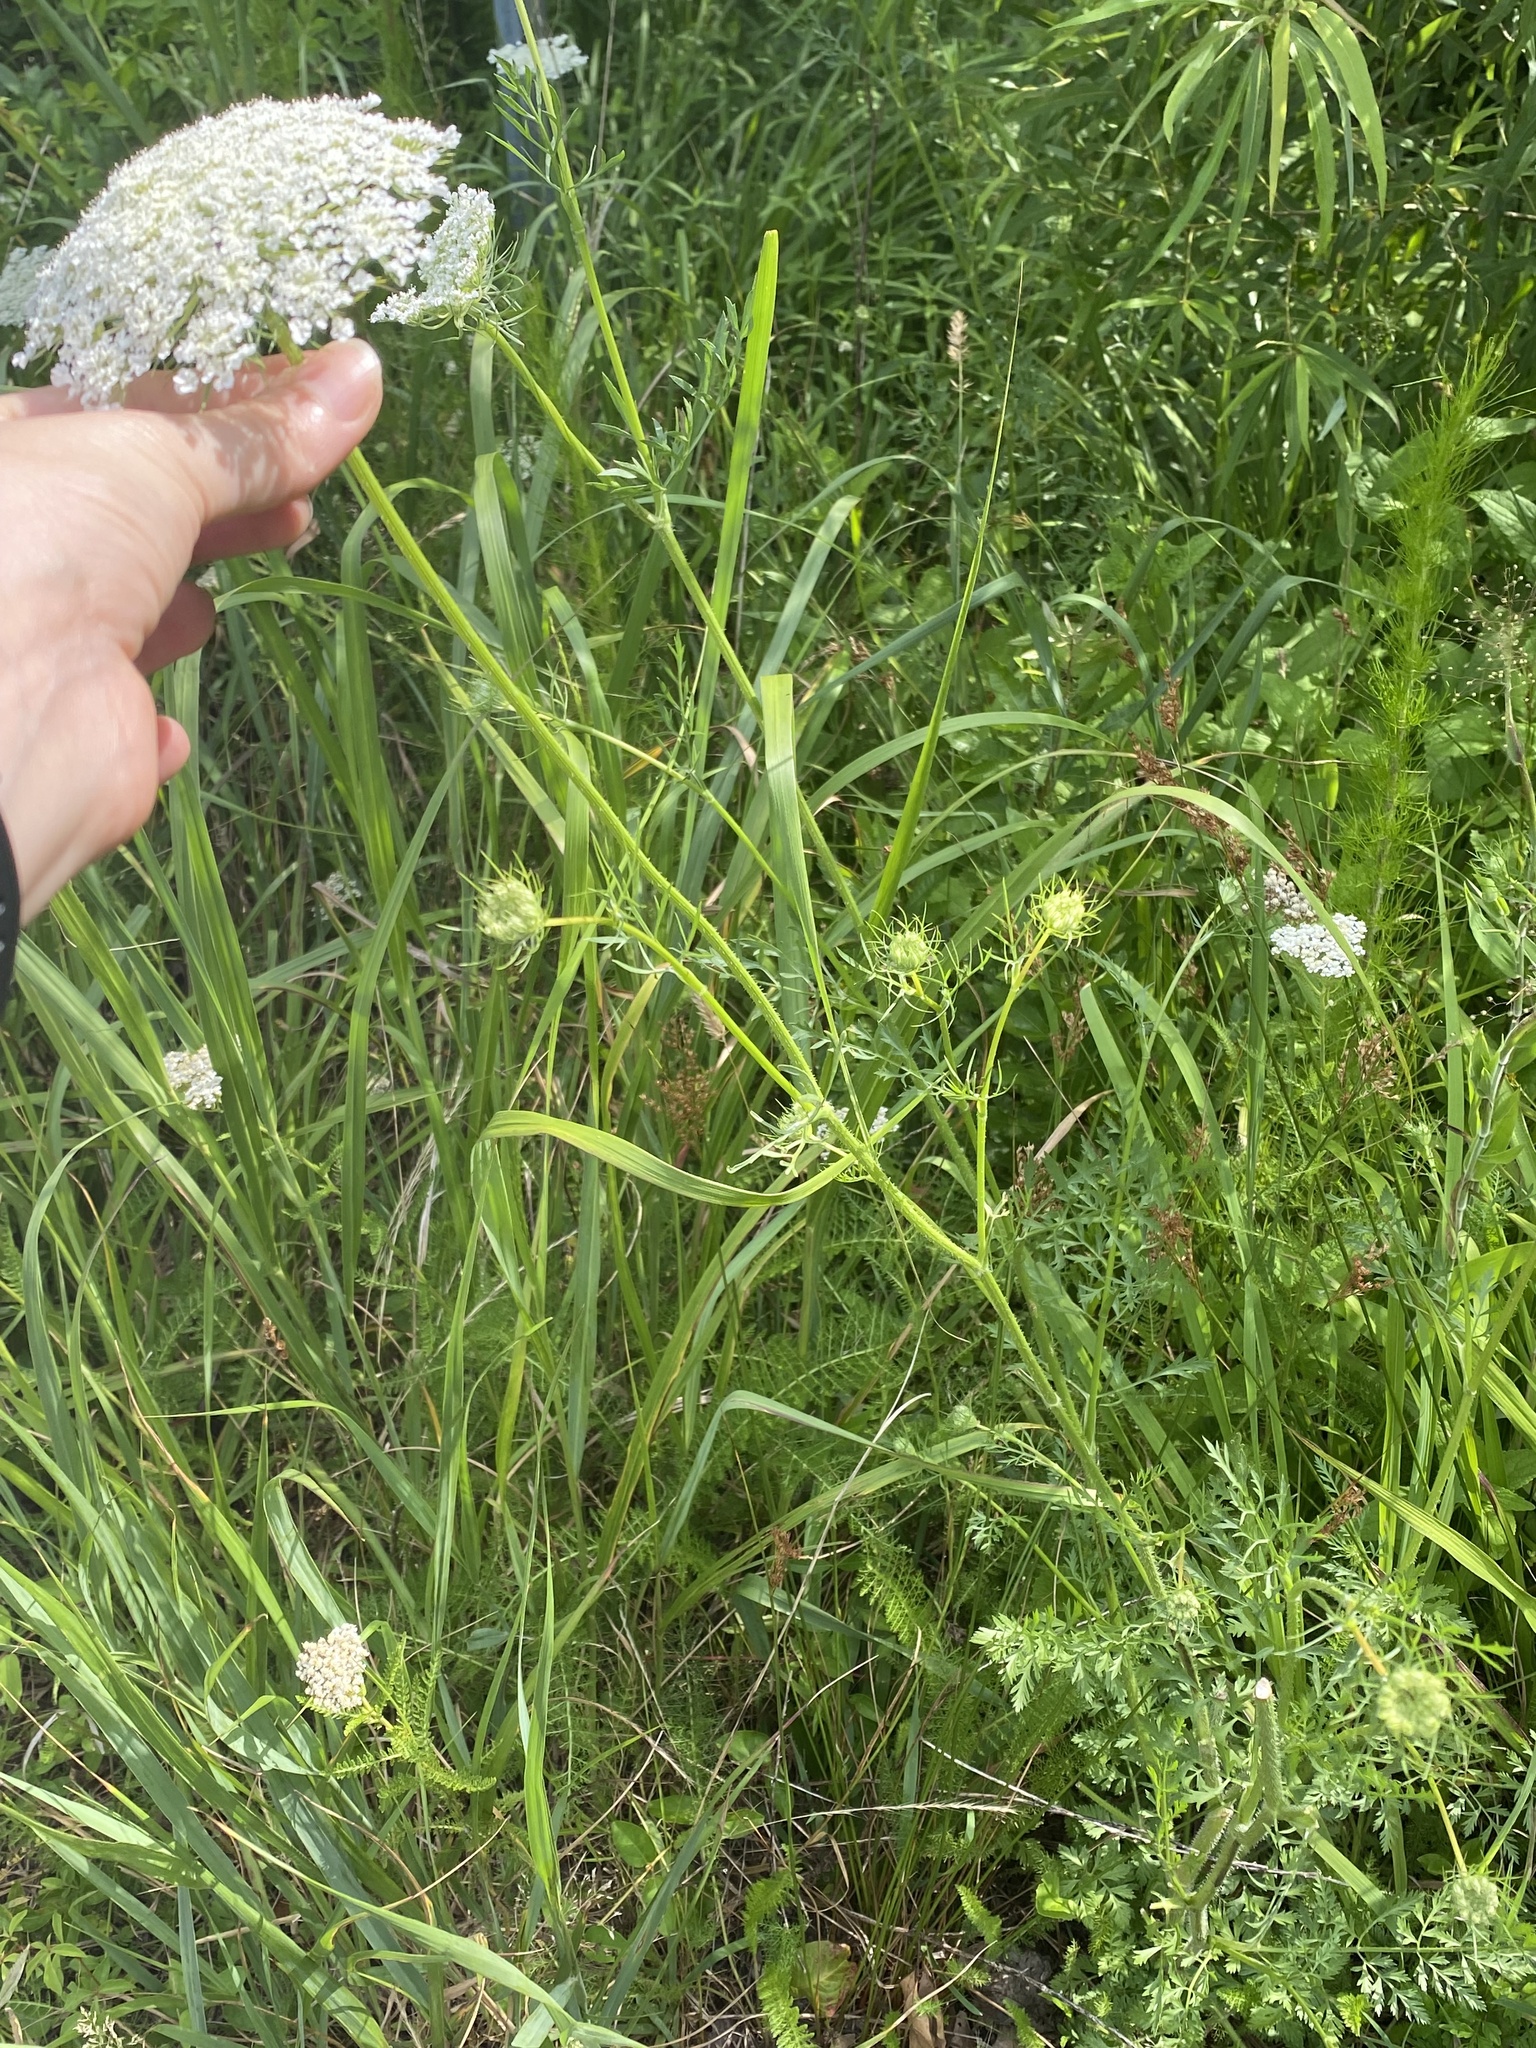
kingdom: Plantae
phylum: Tracheophyta
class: Magnoliopsida
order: Apiales
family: Apiaceae
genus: Daucus
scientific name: Daucus carota
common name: Wild carrot
